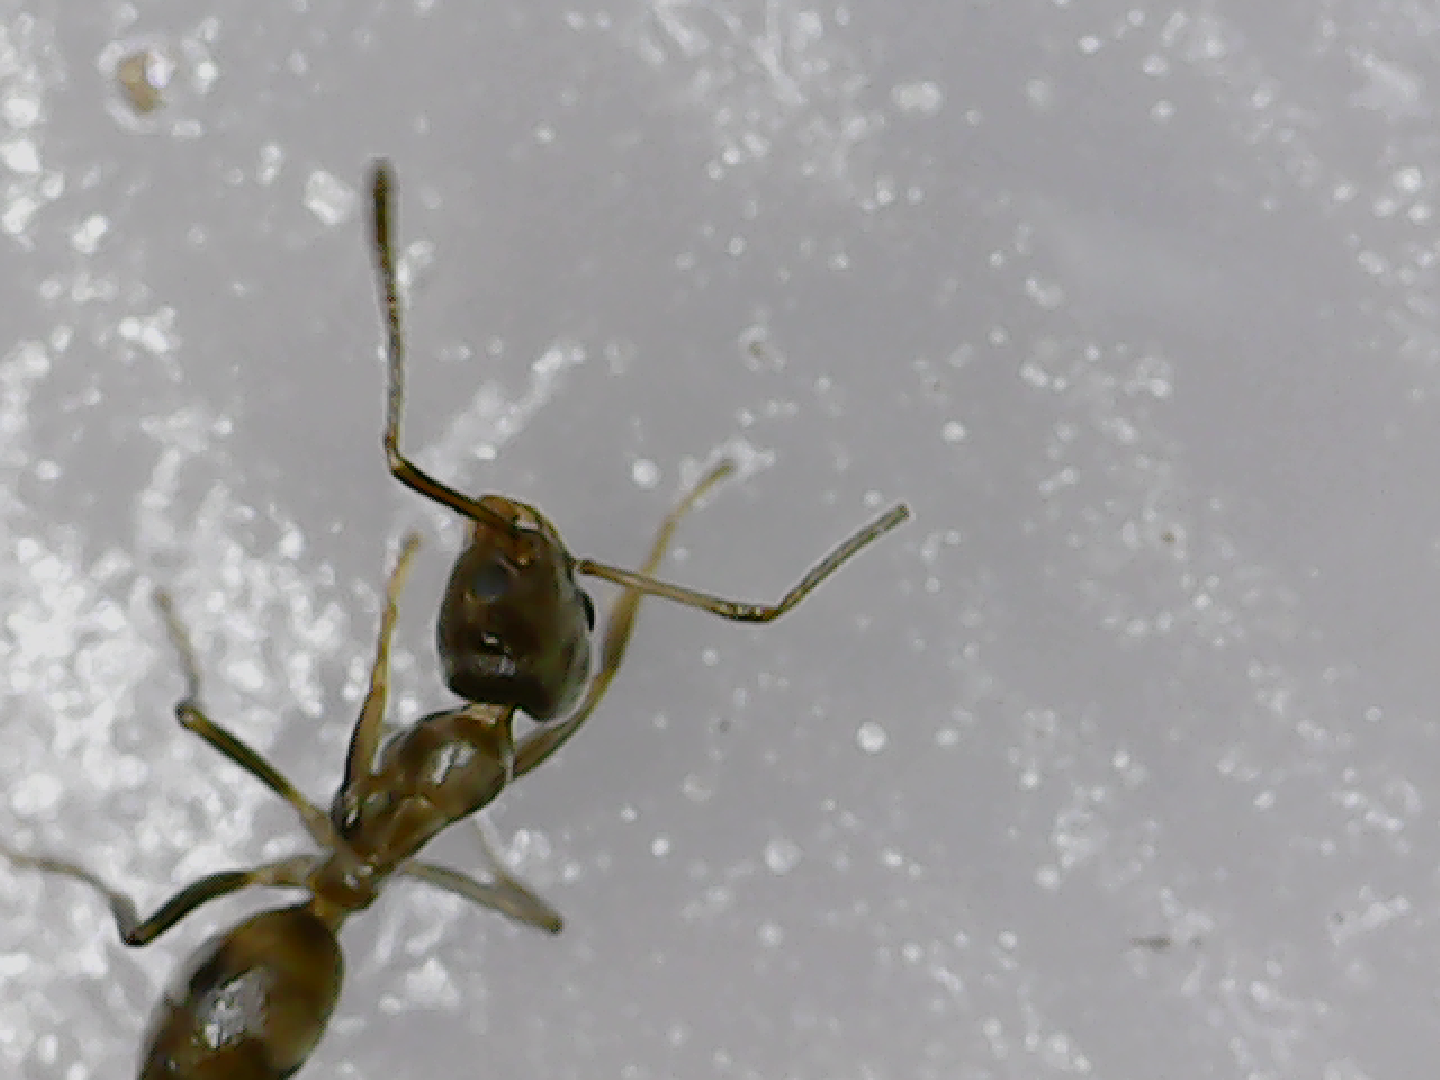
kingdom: Animalia
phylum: Arthropoda
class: Insecta
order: Hymenoptera
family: Formicidae
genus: Linepithema
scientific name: Linepithema humile
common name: Argentine ant
